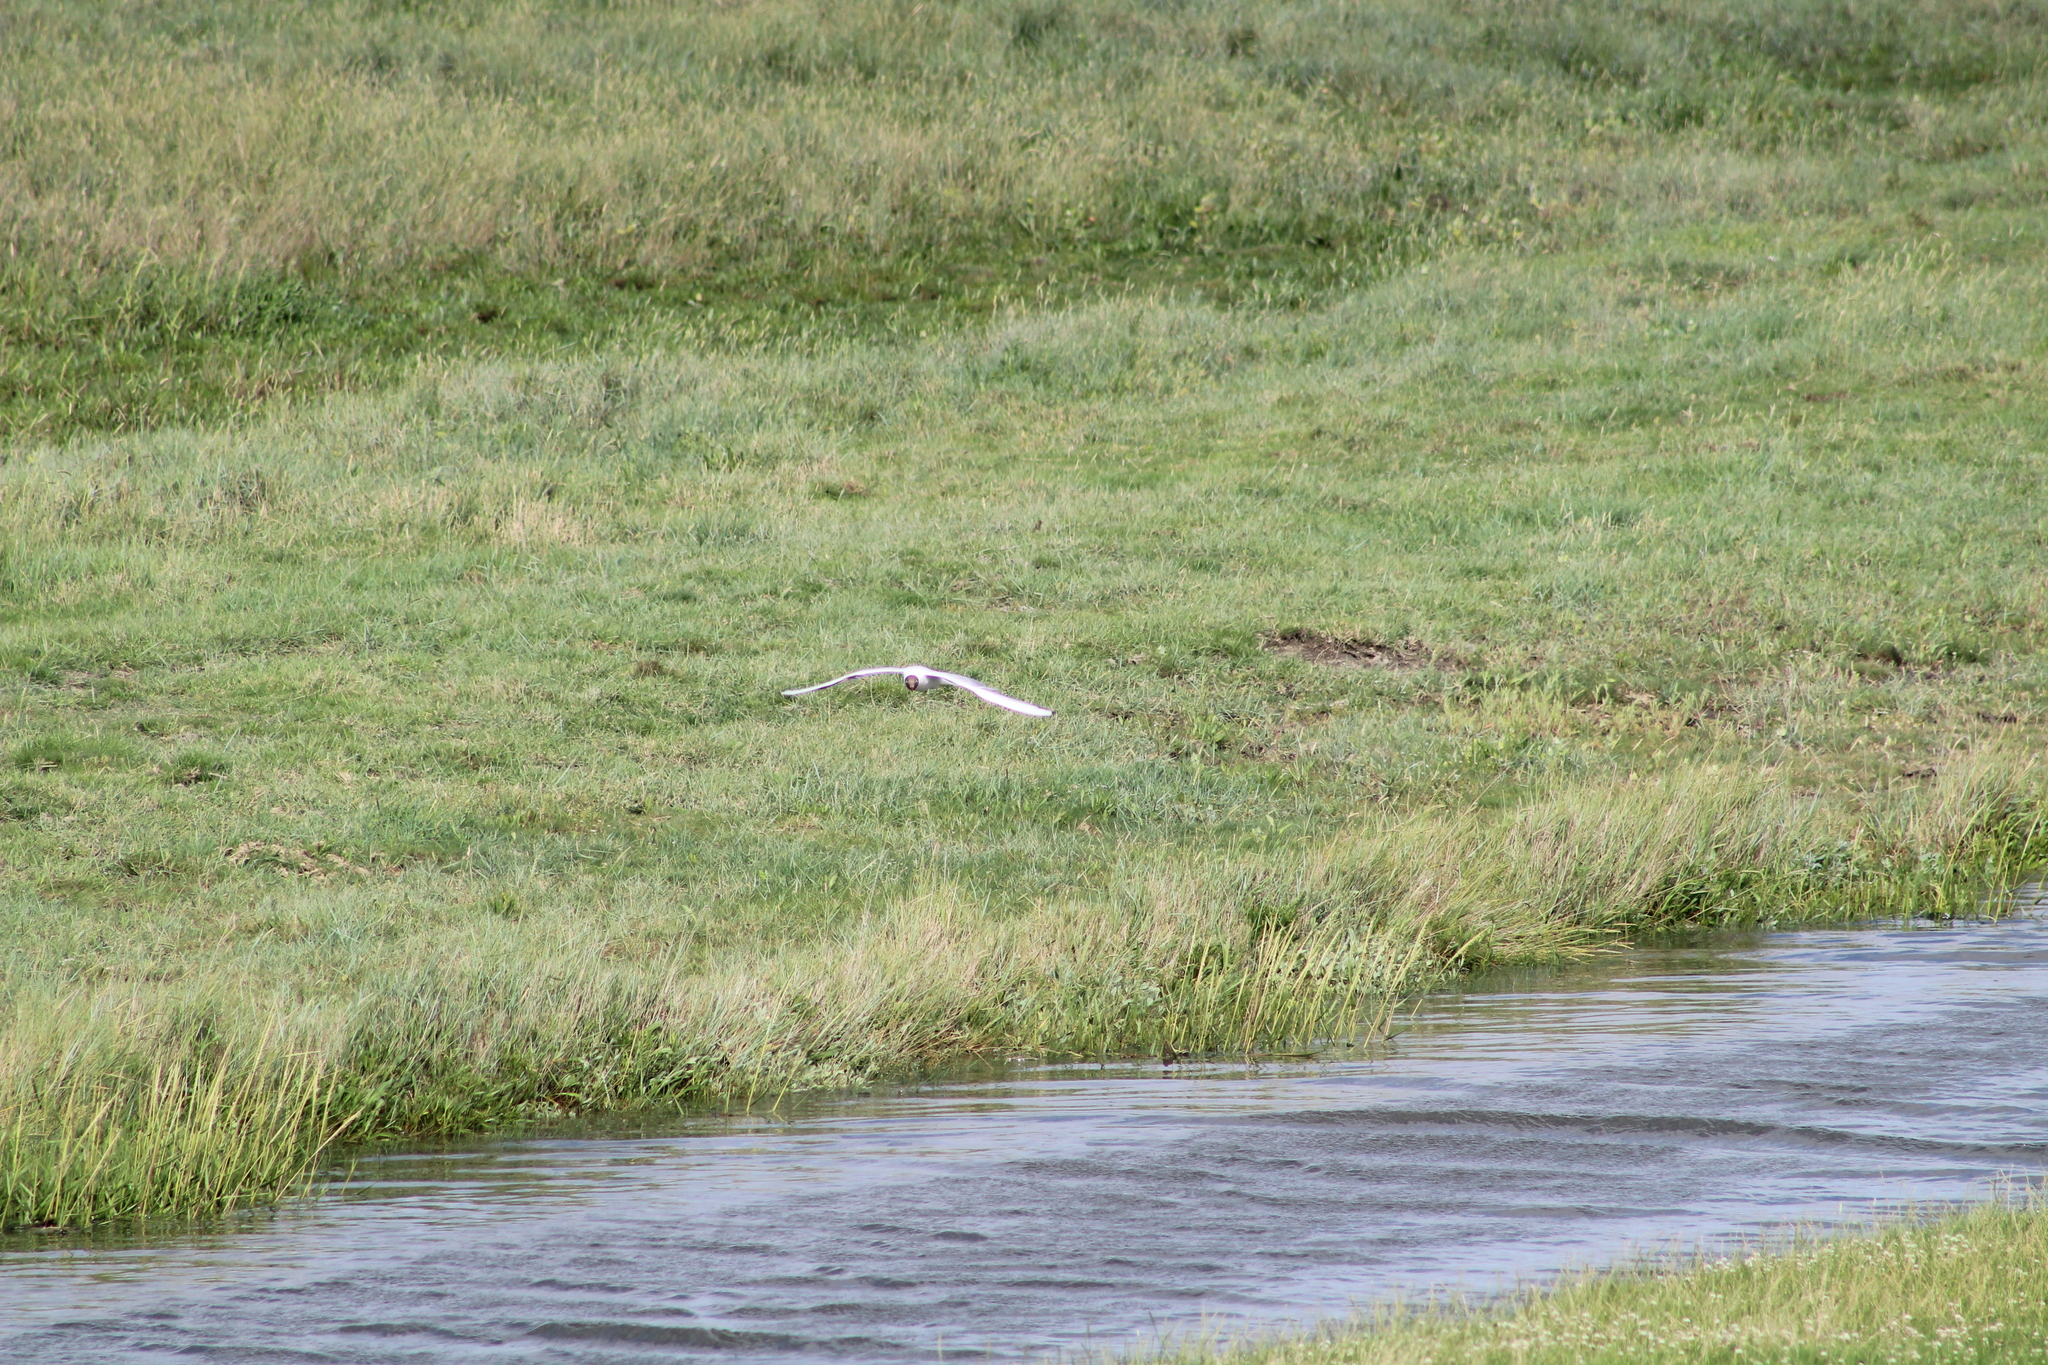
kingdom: Animalia
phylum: Chordata
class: Aves
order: Charadriiformes
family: Laridae
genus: Chroicocephalus
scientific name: Chroicocephalus ridibundus
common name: Black-headed gull
